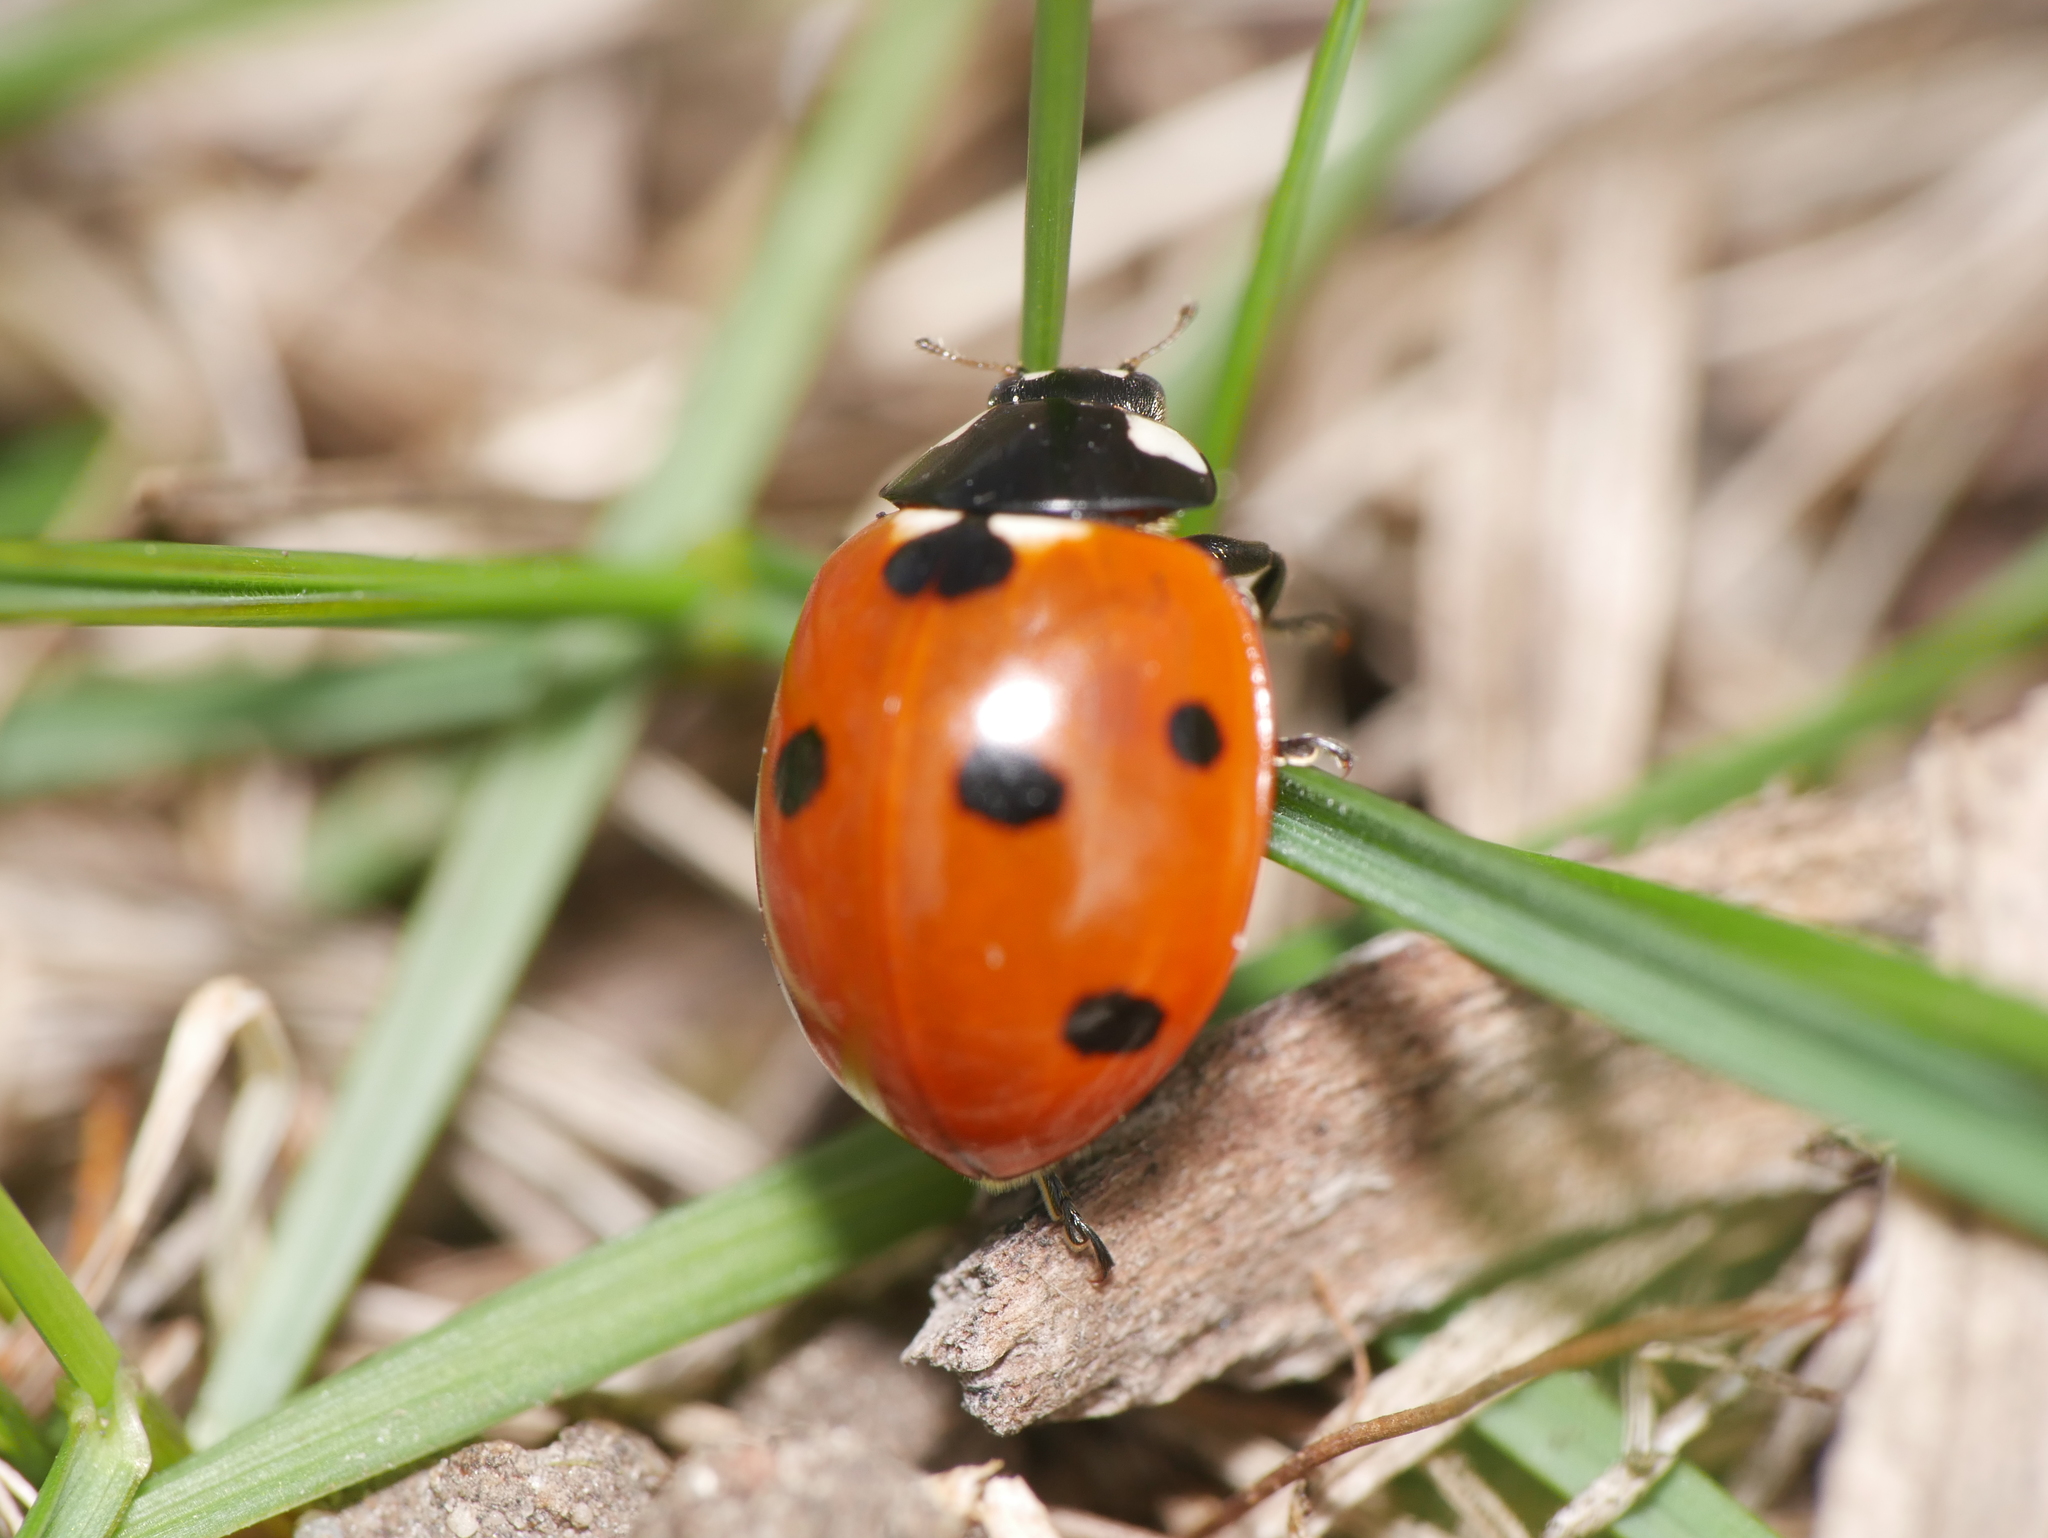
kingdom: Animalia
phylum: Arthropoda
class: Insecta
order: Coleoptera
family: Coccinellidae
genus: Coccinella
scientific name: Coccinella septempunctata
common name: Sevenspotted lady beetle
